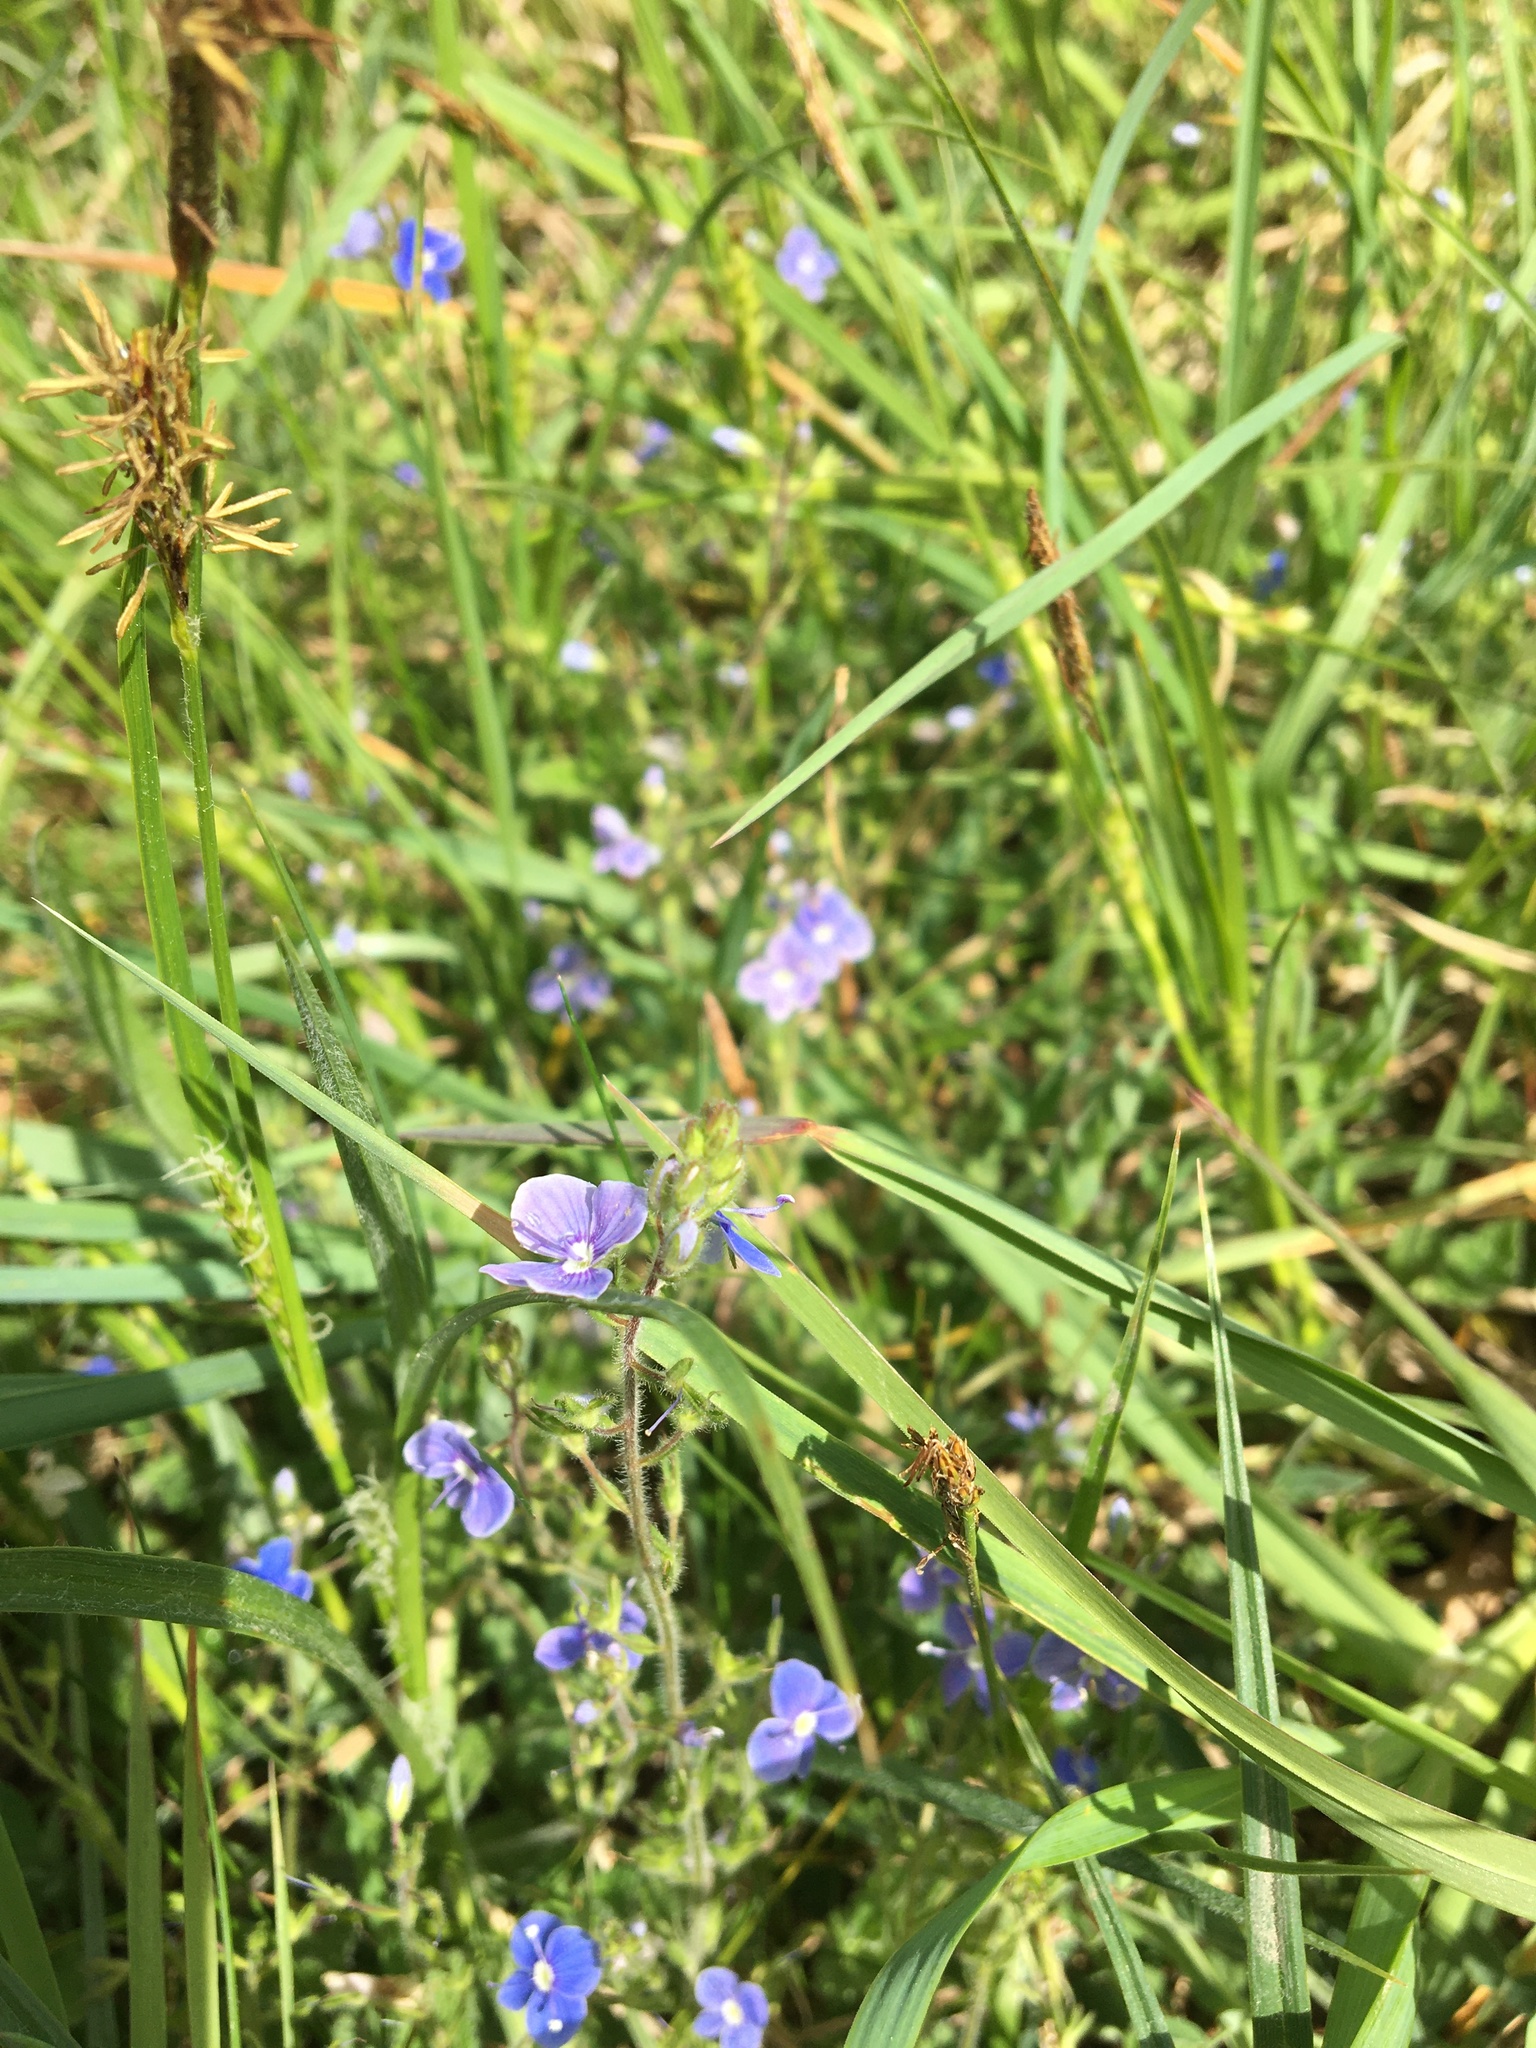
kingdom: Plantae
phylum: Tracheophyta
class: Magnoliopsida
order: Lamiales
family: Plantaginaceae
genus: Veronica
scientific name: Veronica chamaedrys
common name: Germander speedwell
